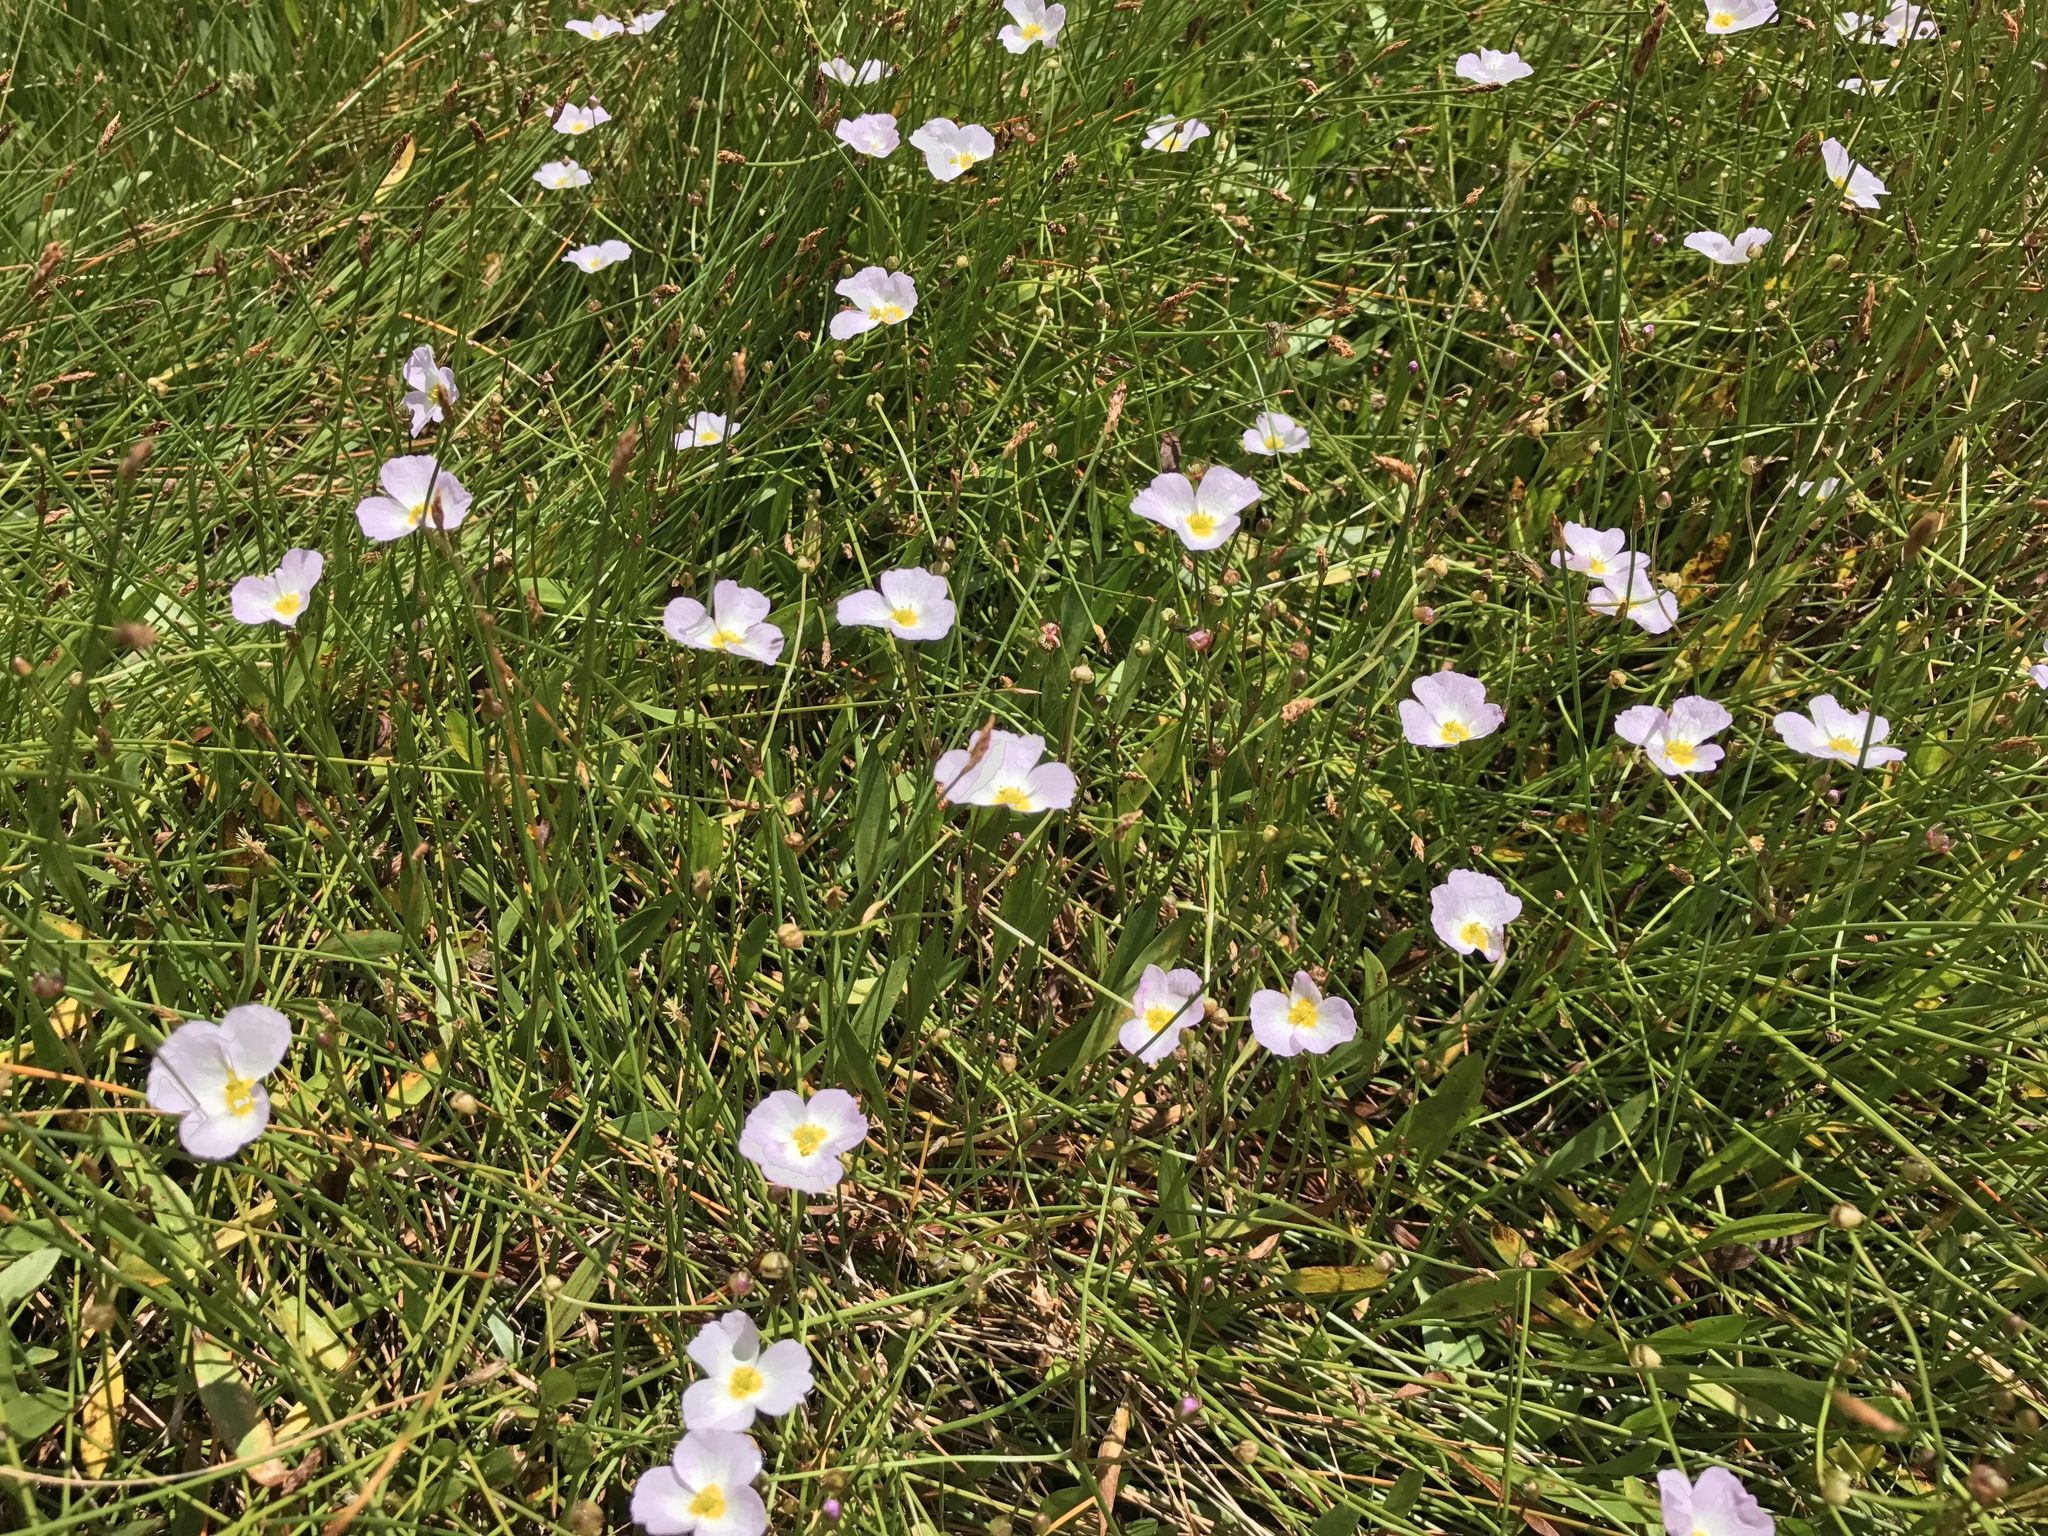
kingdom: Plantae
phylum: Tracheophyta
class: Liliopsida
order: Alismatales
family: Alismataceae
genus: Baldellia
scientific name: Baldellia ranunculoides
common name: Lesser water-plantain
